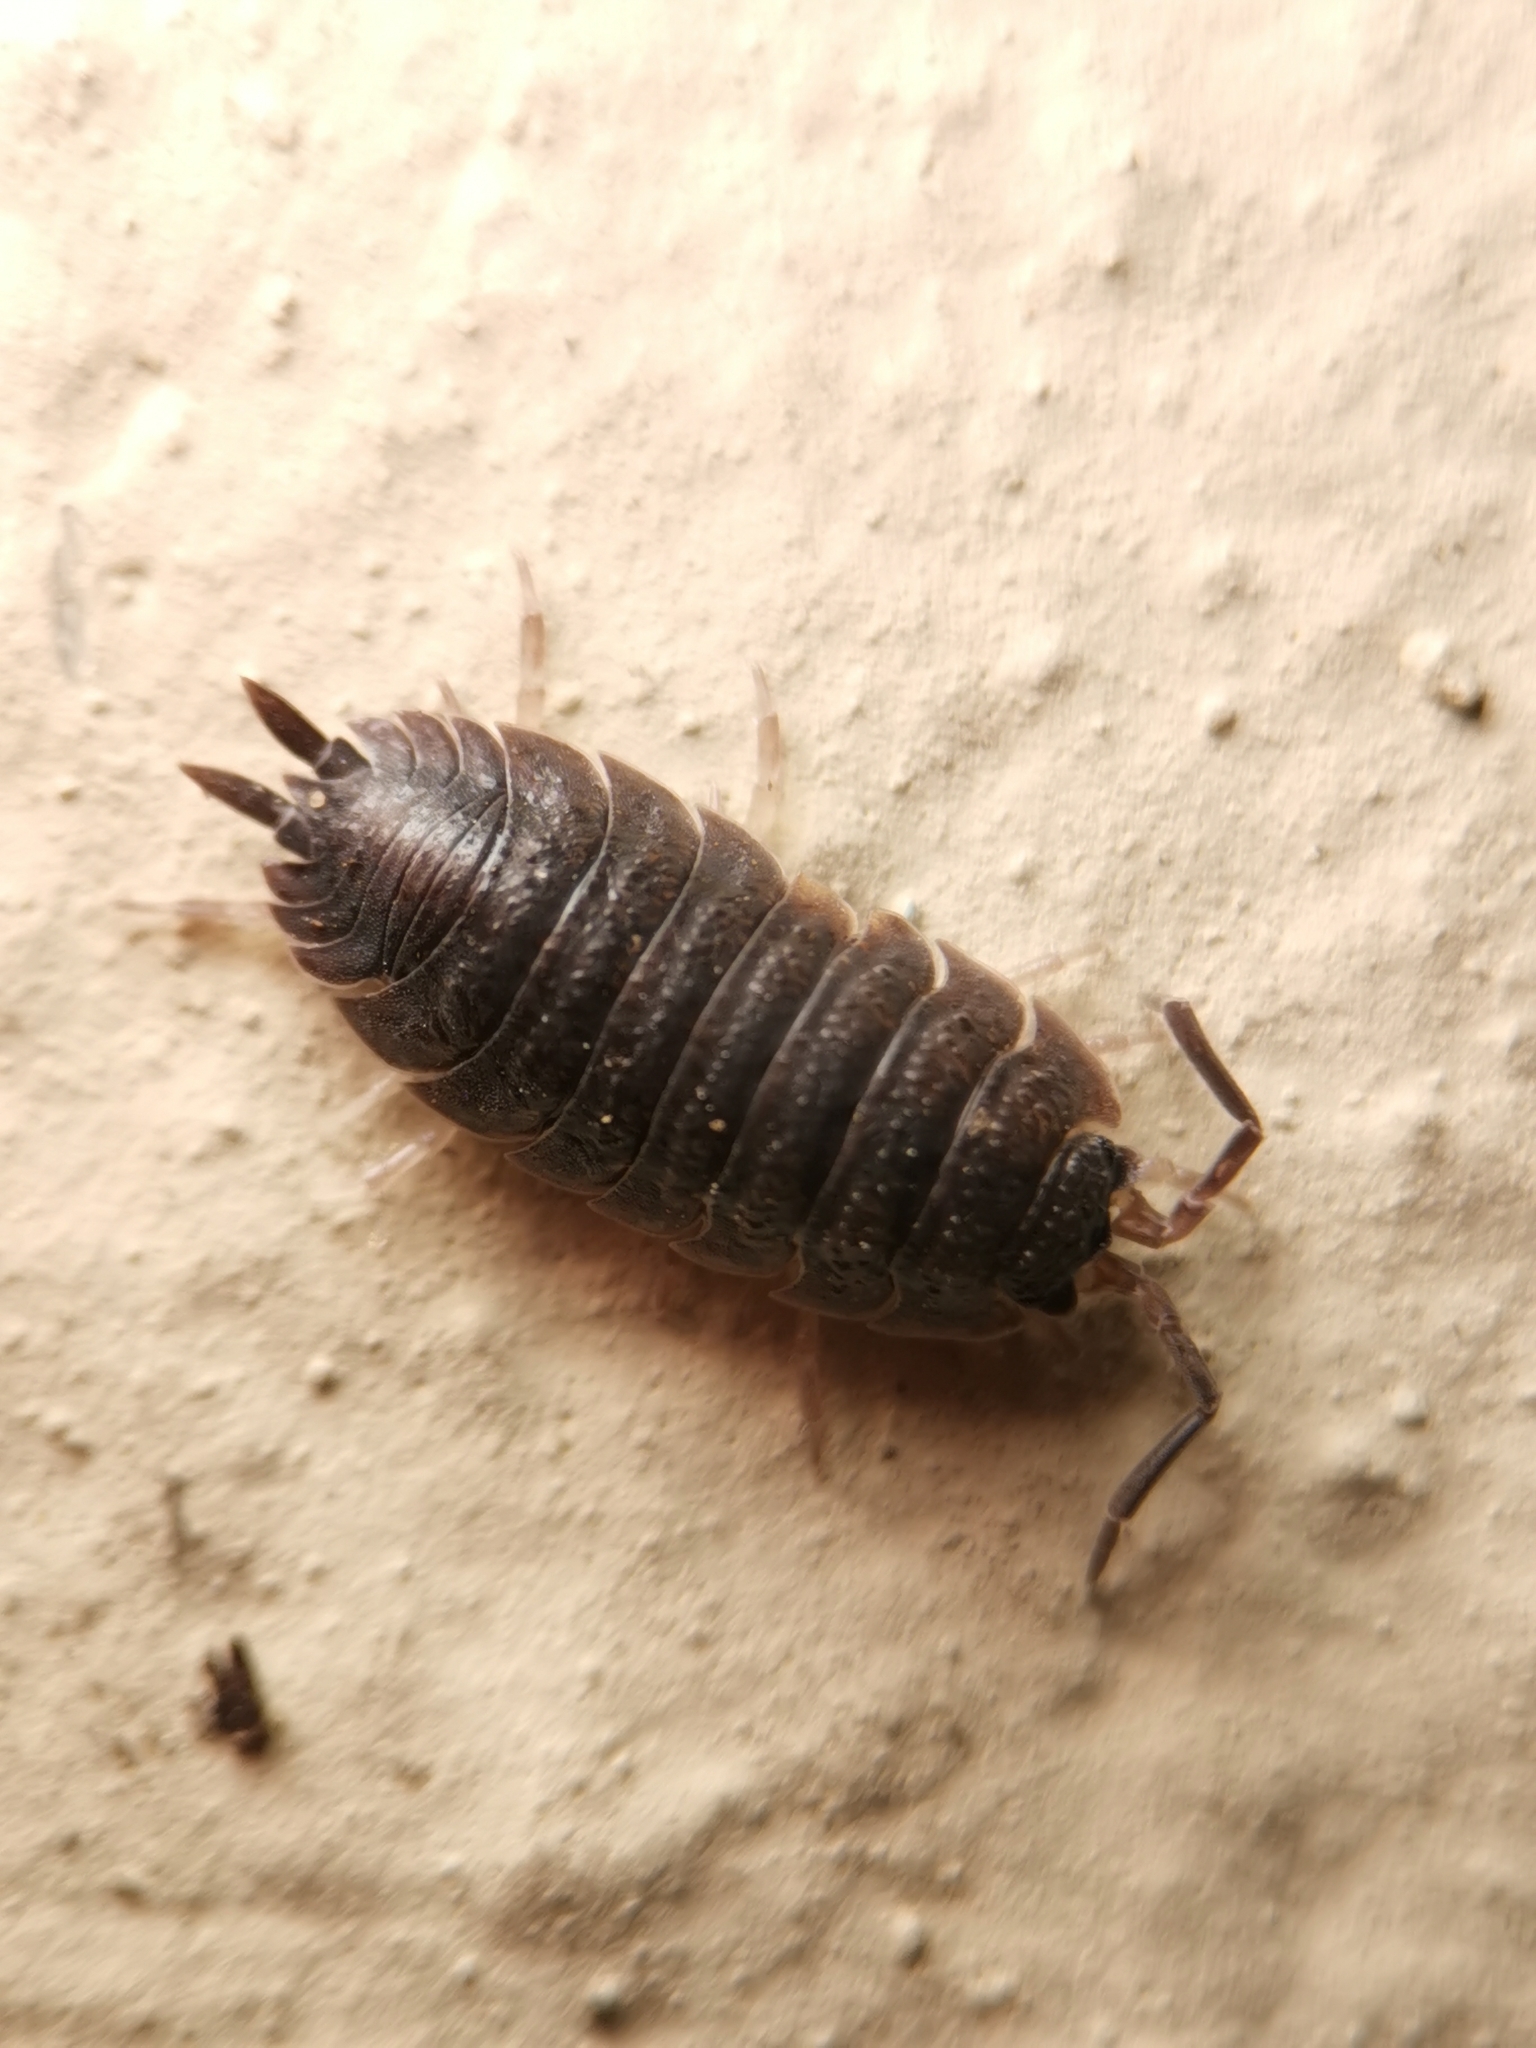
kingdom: Animalia
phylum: Arthropoda
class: Malacostraca
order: Isopoda
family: Porcellionidae
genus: Porcellio
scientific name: Porcellio scaber
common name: Common rough woodlouse
